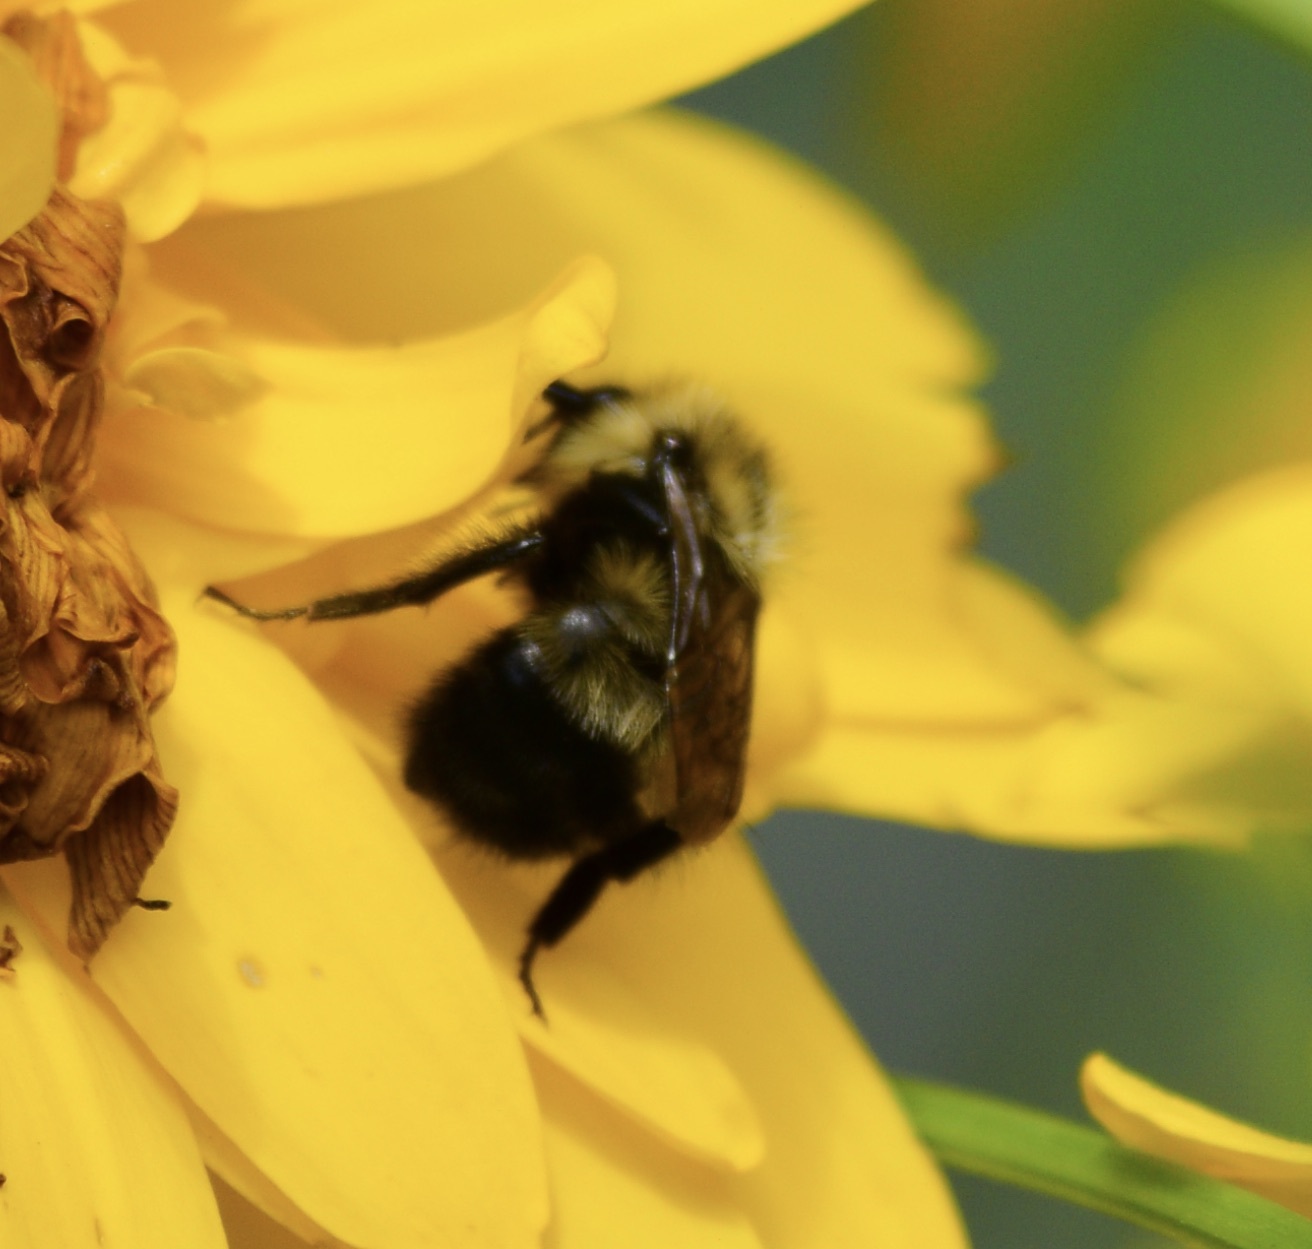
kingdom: Animalia
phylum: Arthropoda
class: Insecta
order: Hymenoptera
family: Apidae
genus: Pyrobombus
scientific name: Pyrobombus
